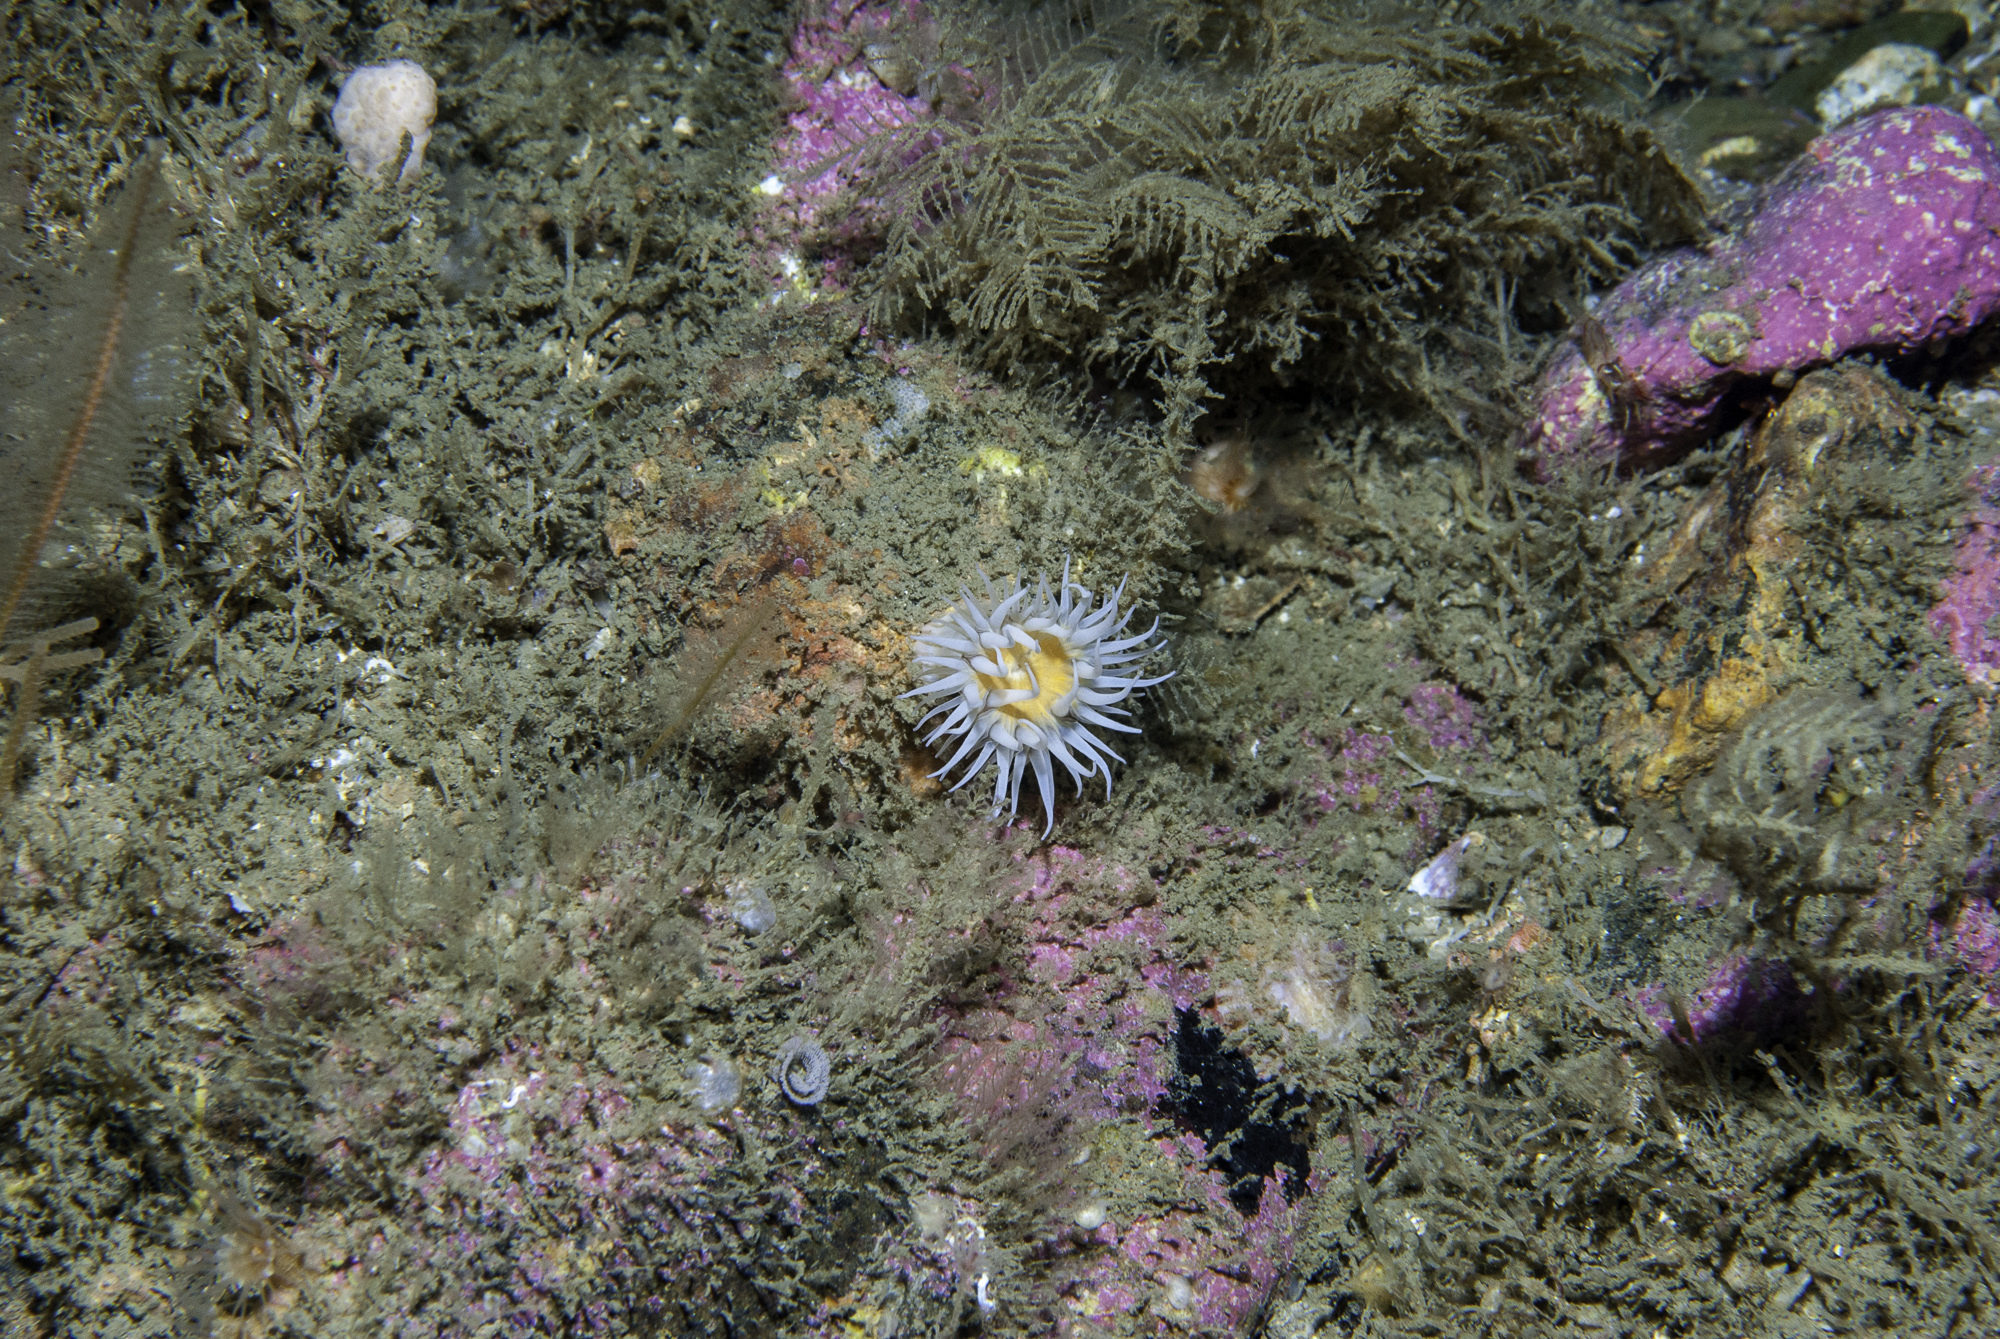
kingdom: Animalia
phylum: Cnidaria
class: Anthozoa
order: Actiniaria
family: Sagartiidae
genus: Actinothoe
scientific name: Actinothoe sphyrodeta
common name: Sandalled anemone
